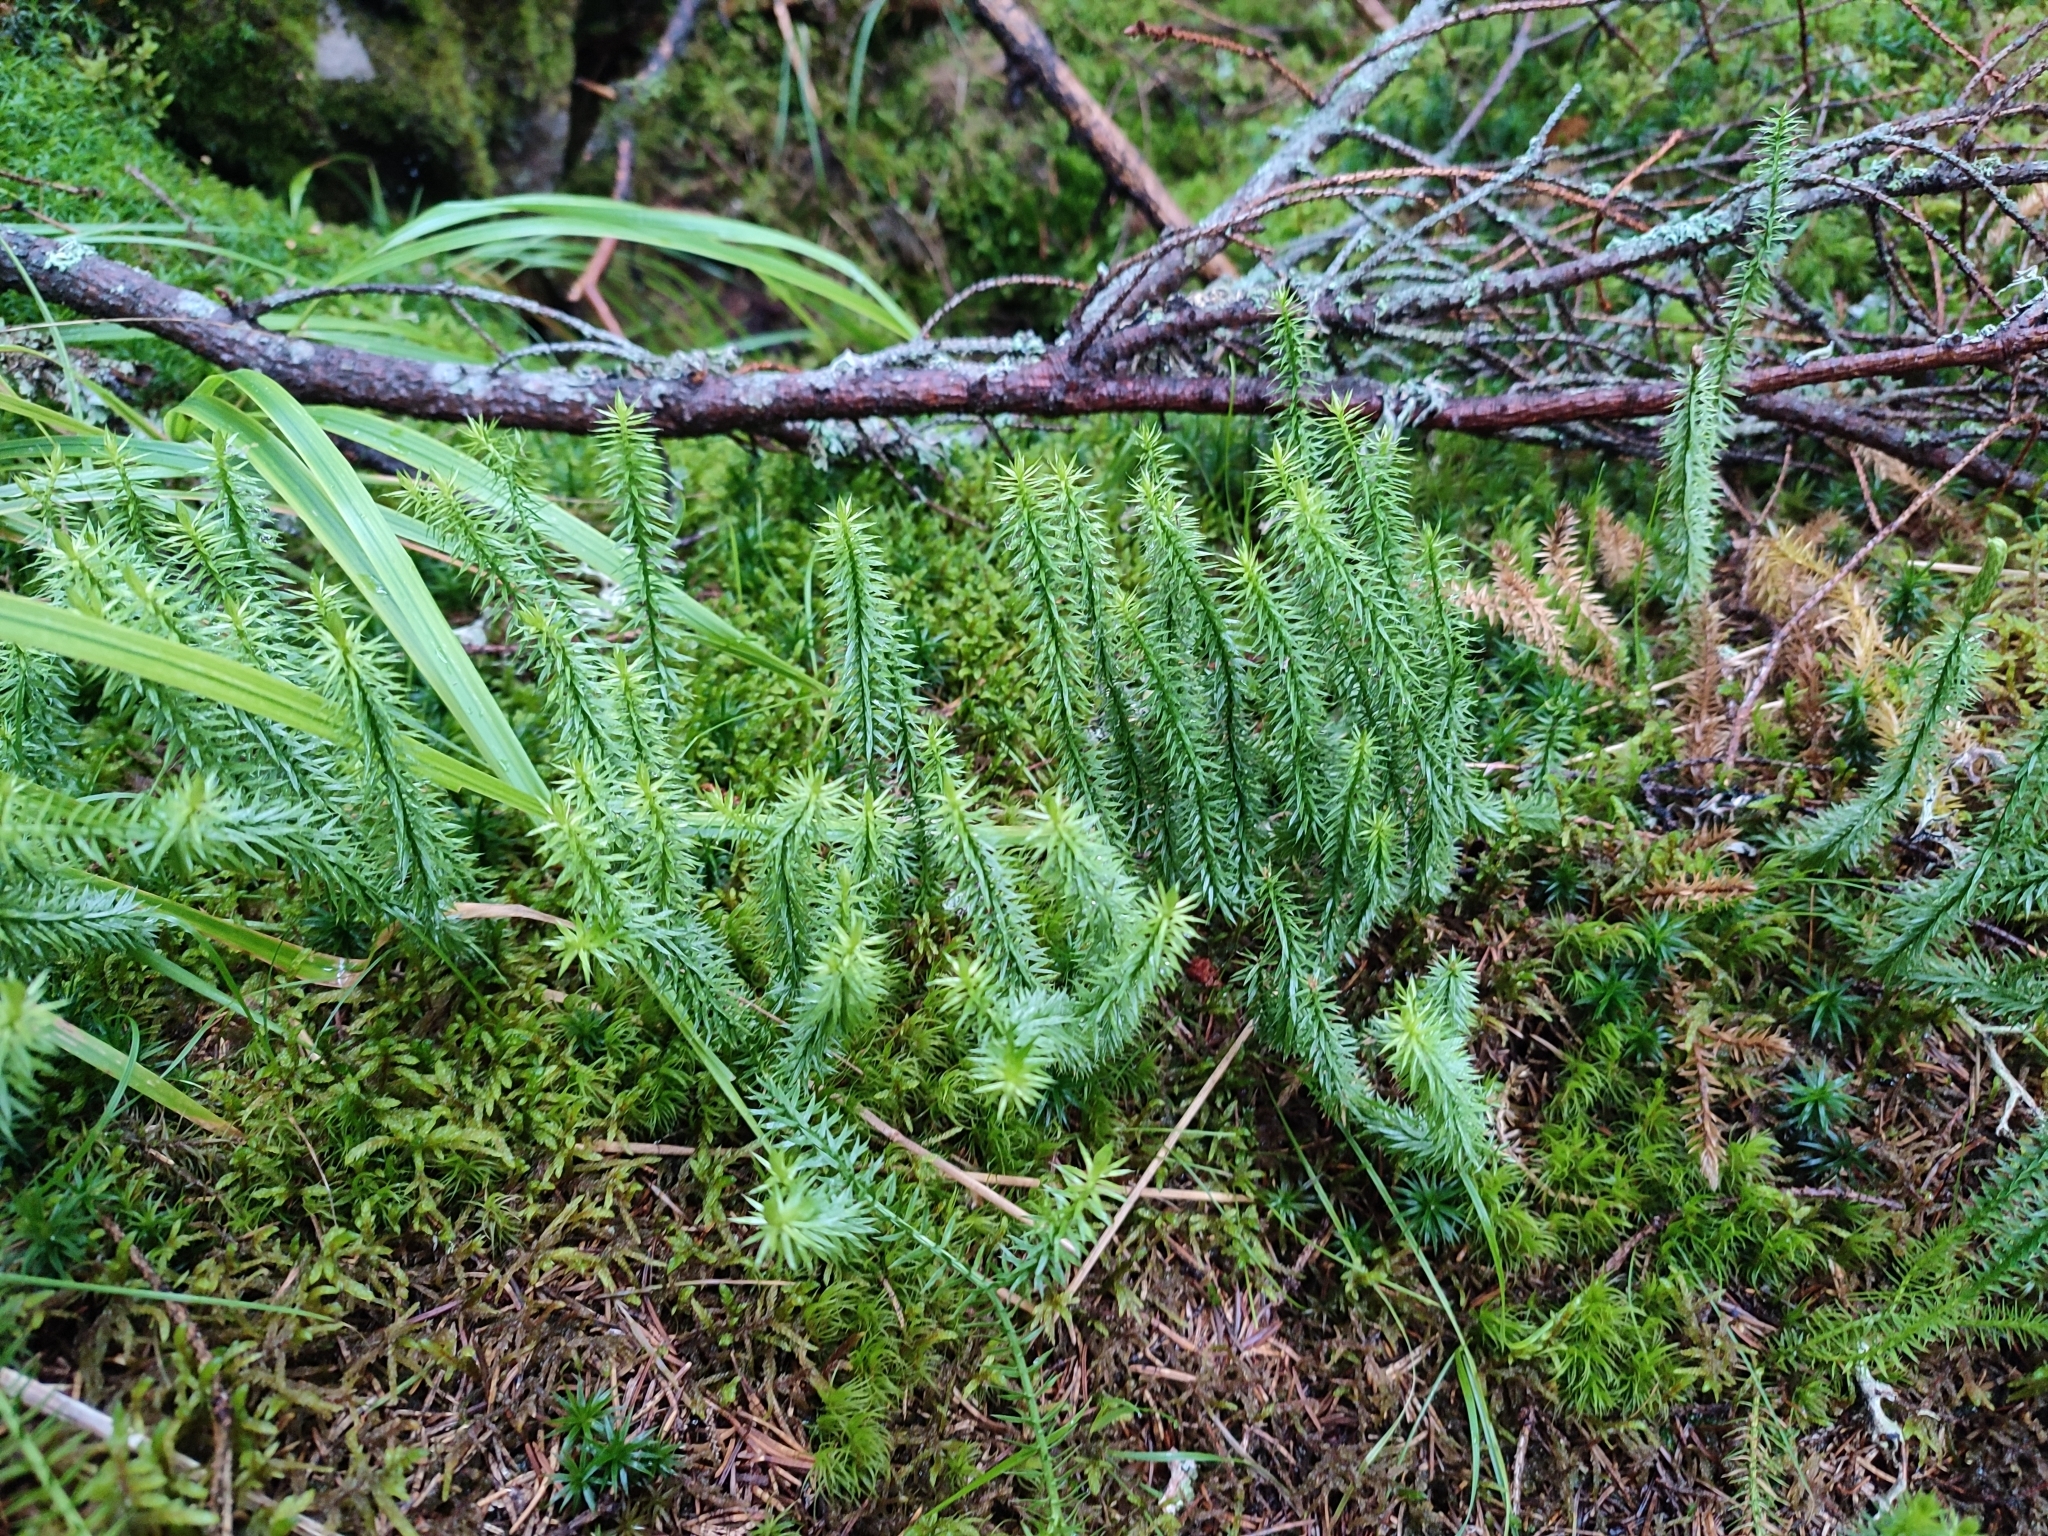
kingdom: Plantae
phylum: Tracheophyta
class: Lycopodiopsida
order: Lycopodiales
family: Lycopodiaceae
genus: Spinulum
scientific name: Spinulum annotinum
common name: Interrupted club-moss
